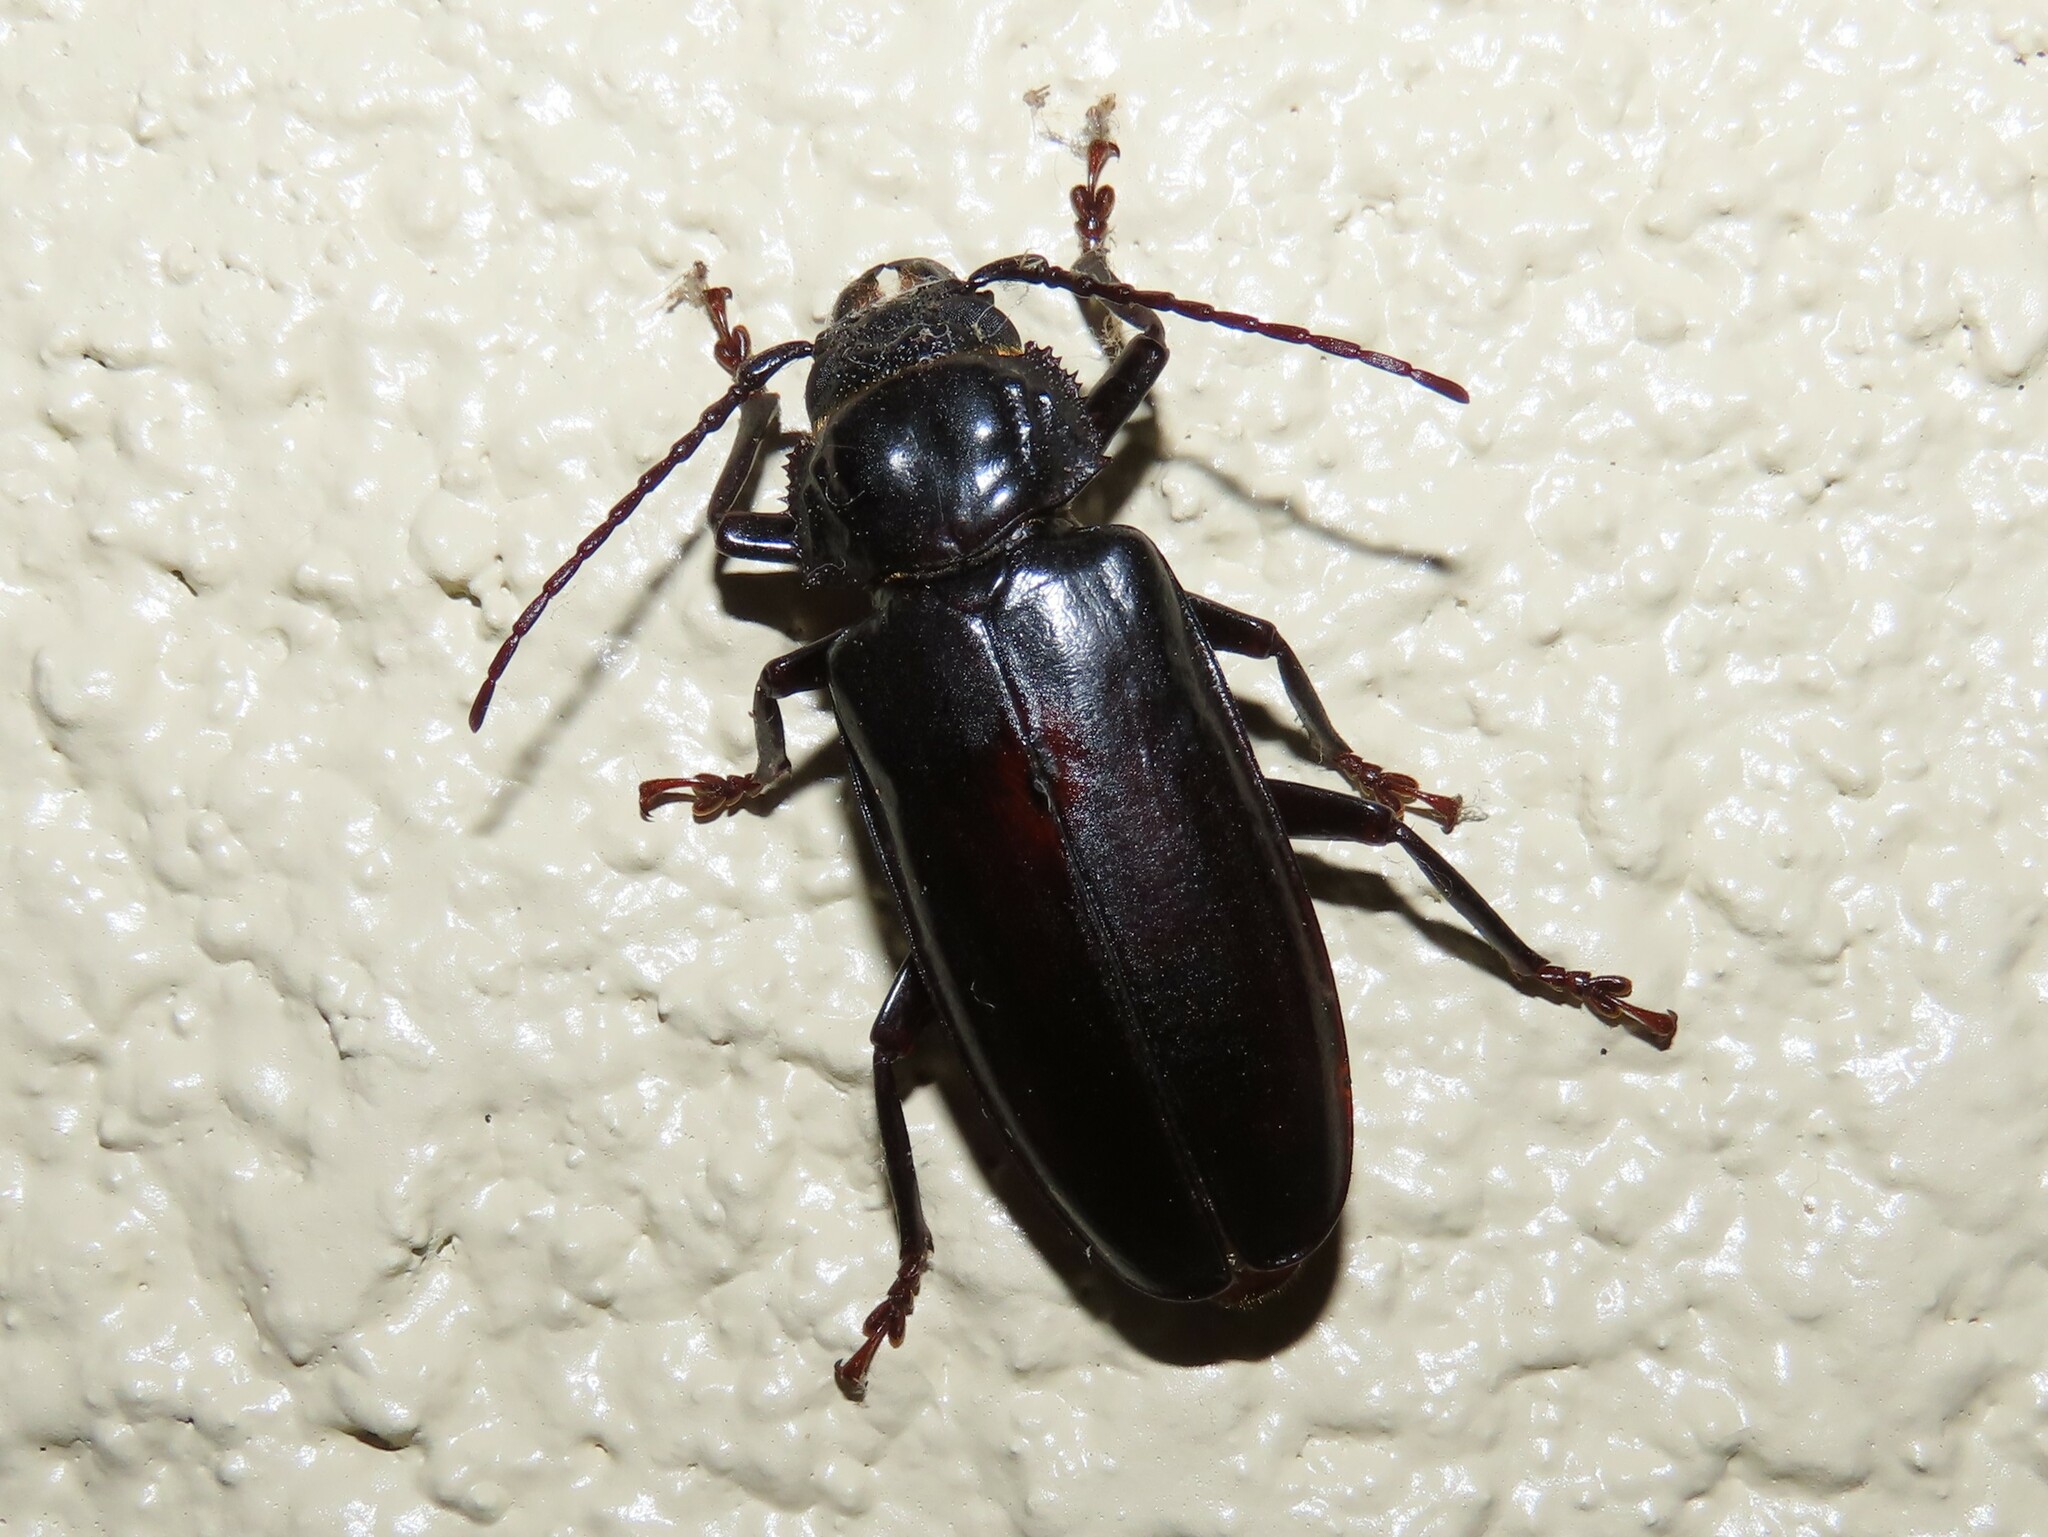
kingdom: Animalia
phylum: Arthropoda
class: Insecta
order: Coleoptera
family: Cerambycidae
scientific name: Cerambycidae
